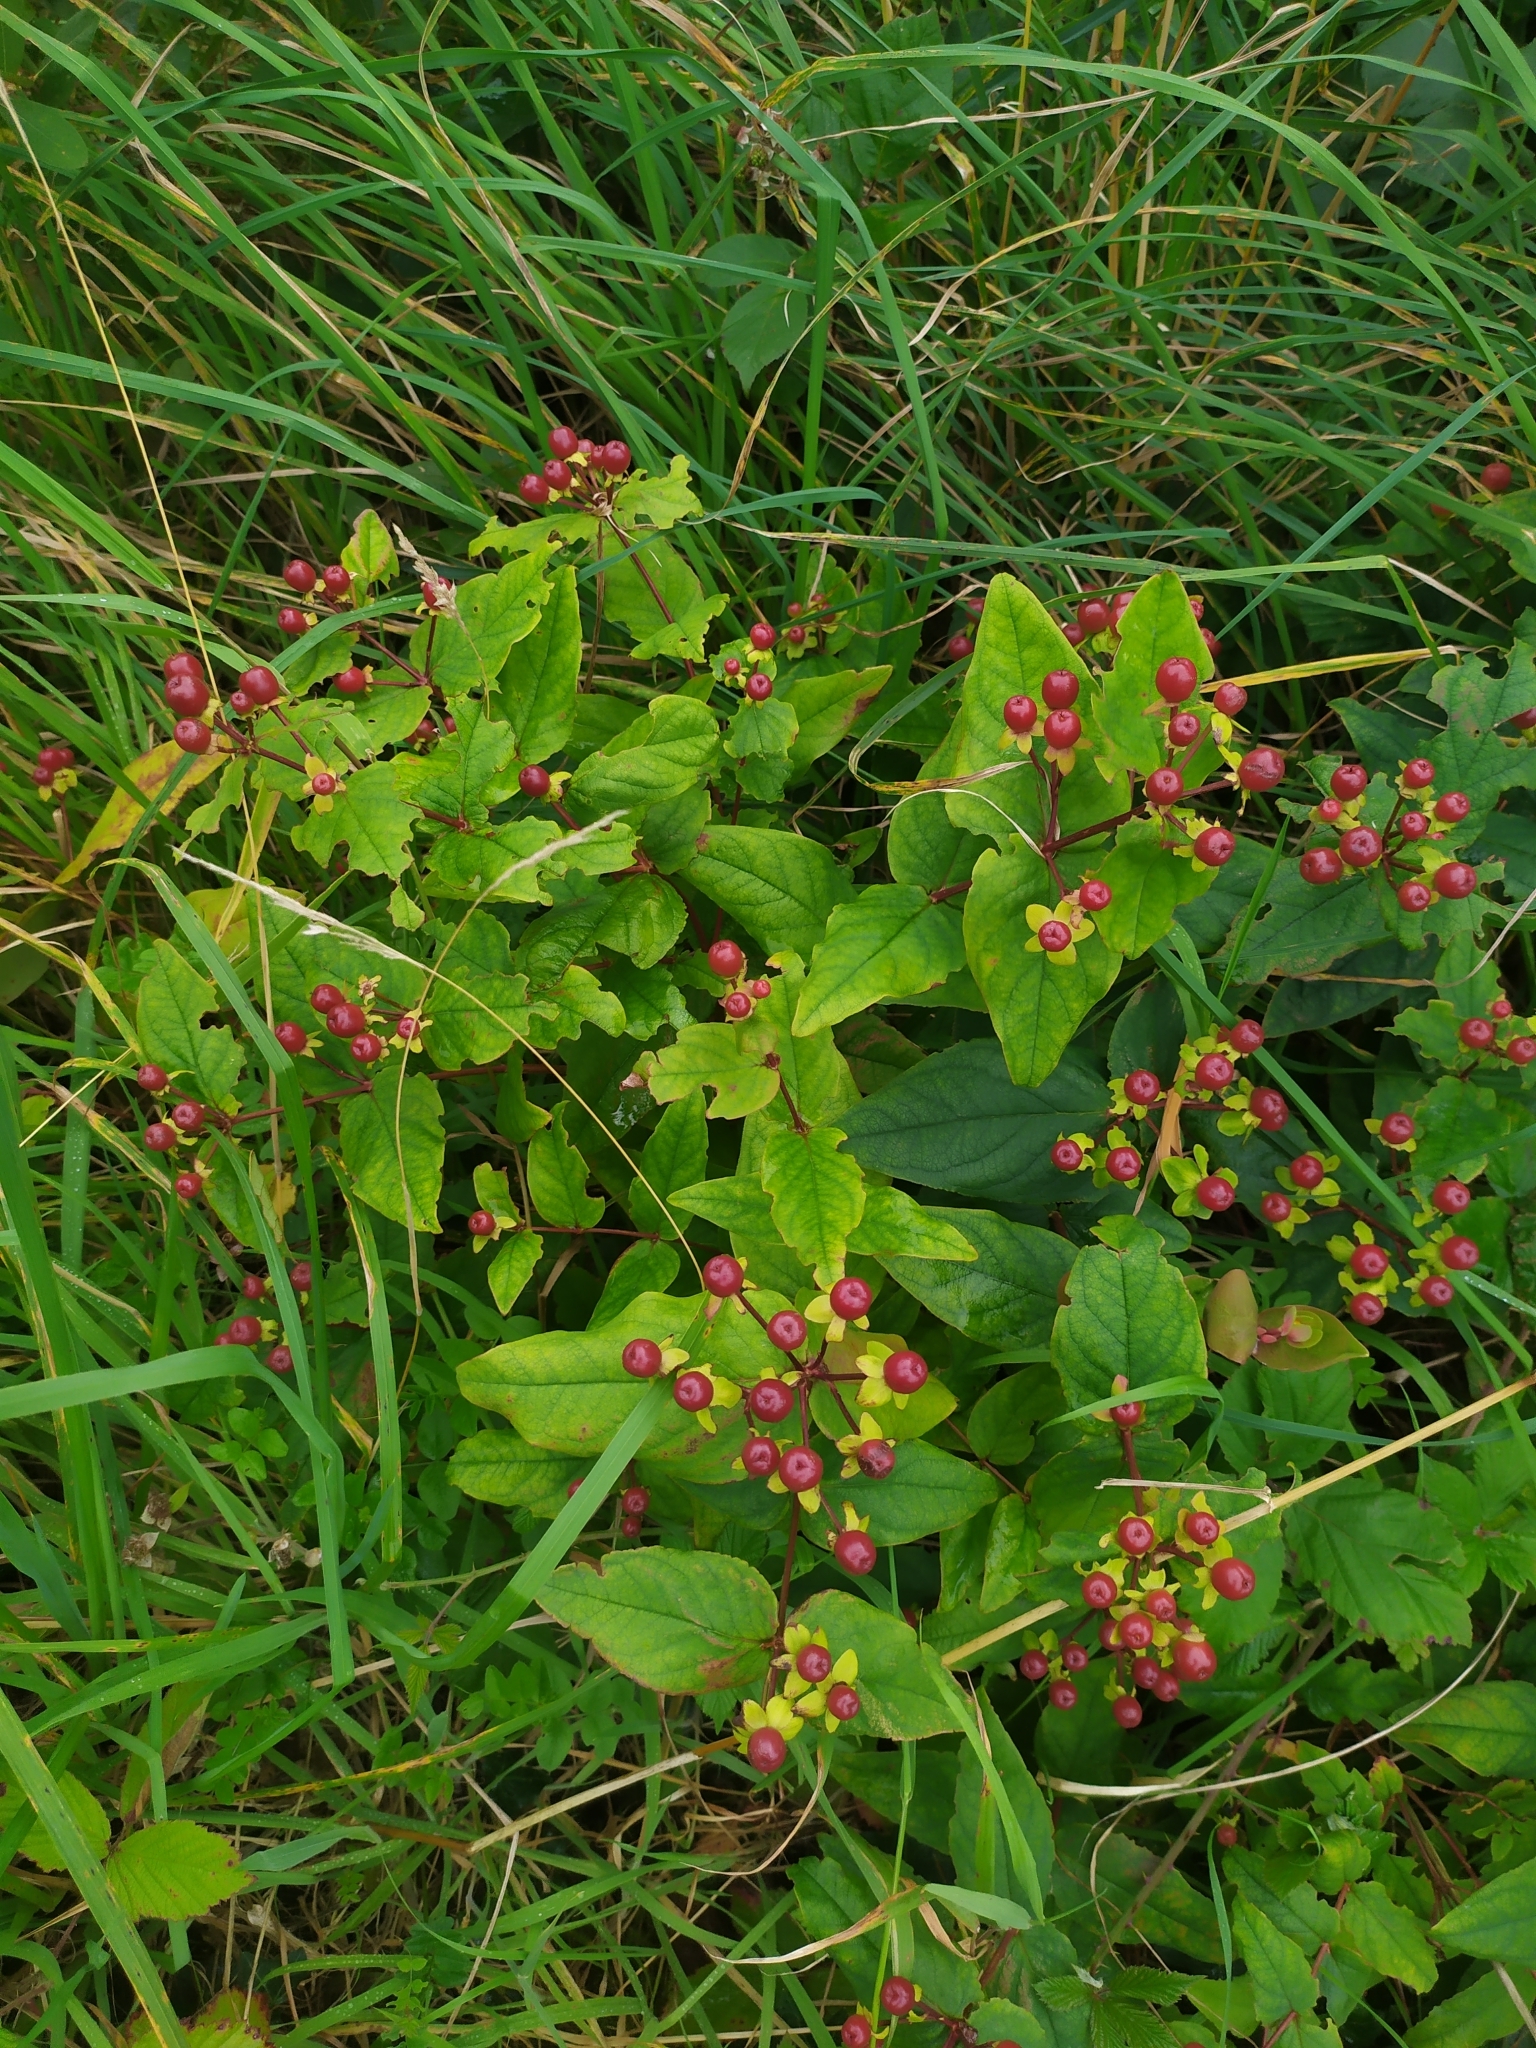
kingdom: Plantae
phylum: Tracheophyta
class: Magnoliopsida
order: Malpighiales
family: Hypericaceae
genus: Hypericum
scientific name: Hypericum androsaemum
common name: Sweet-amber
